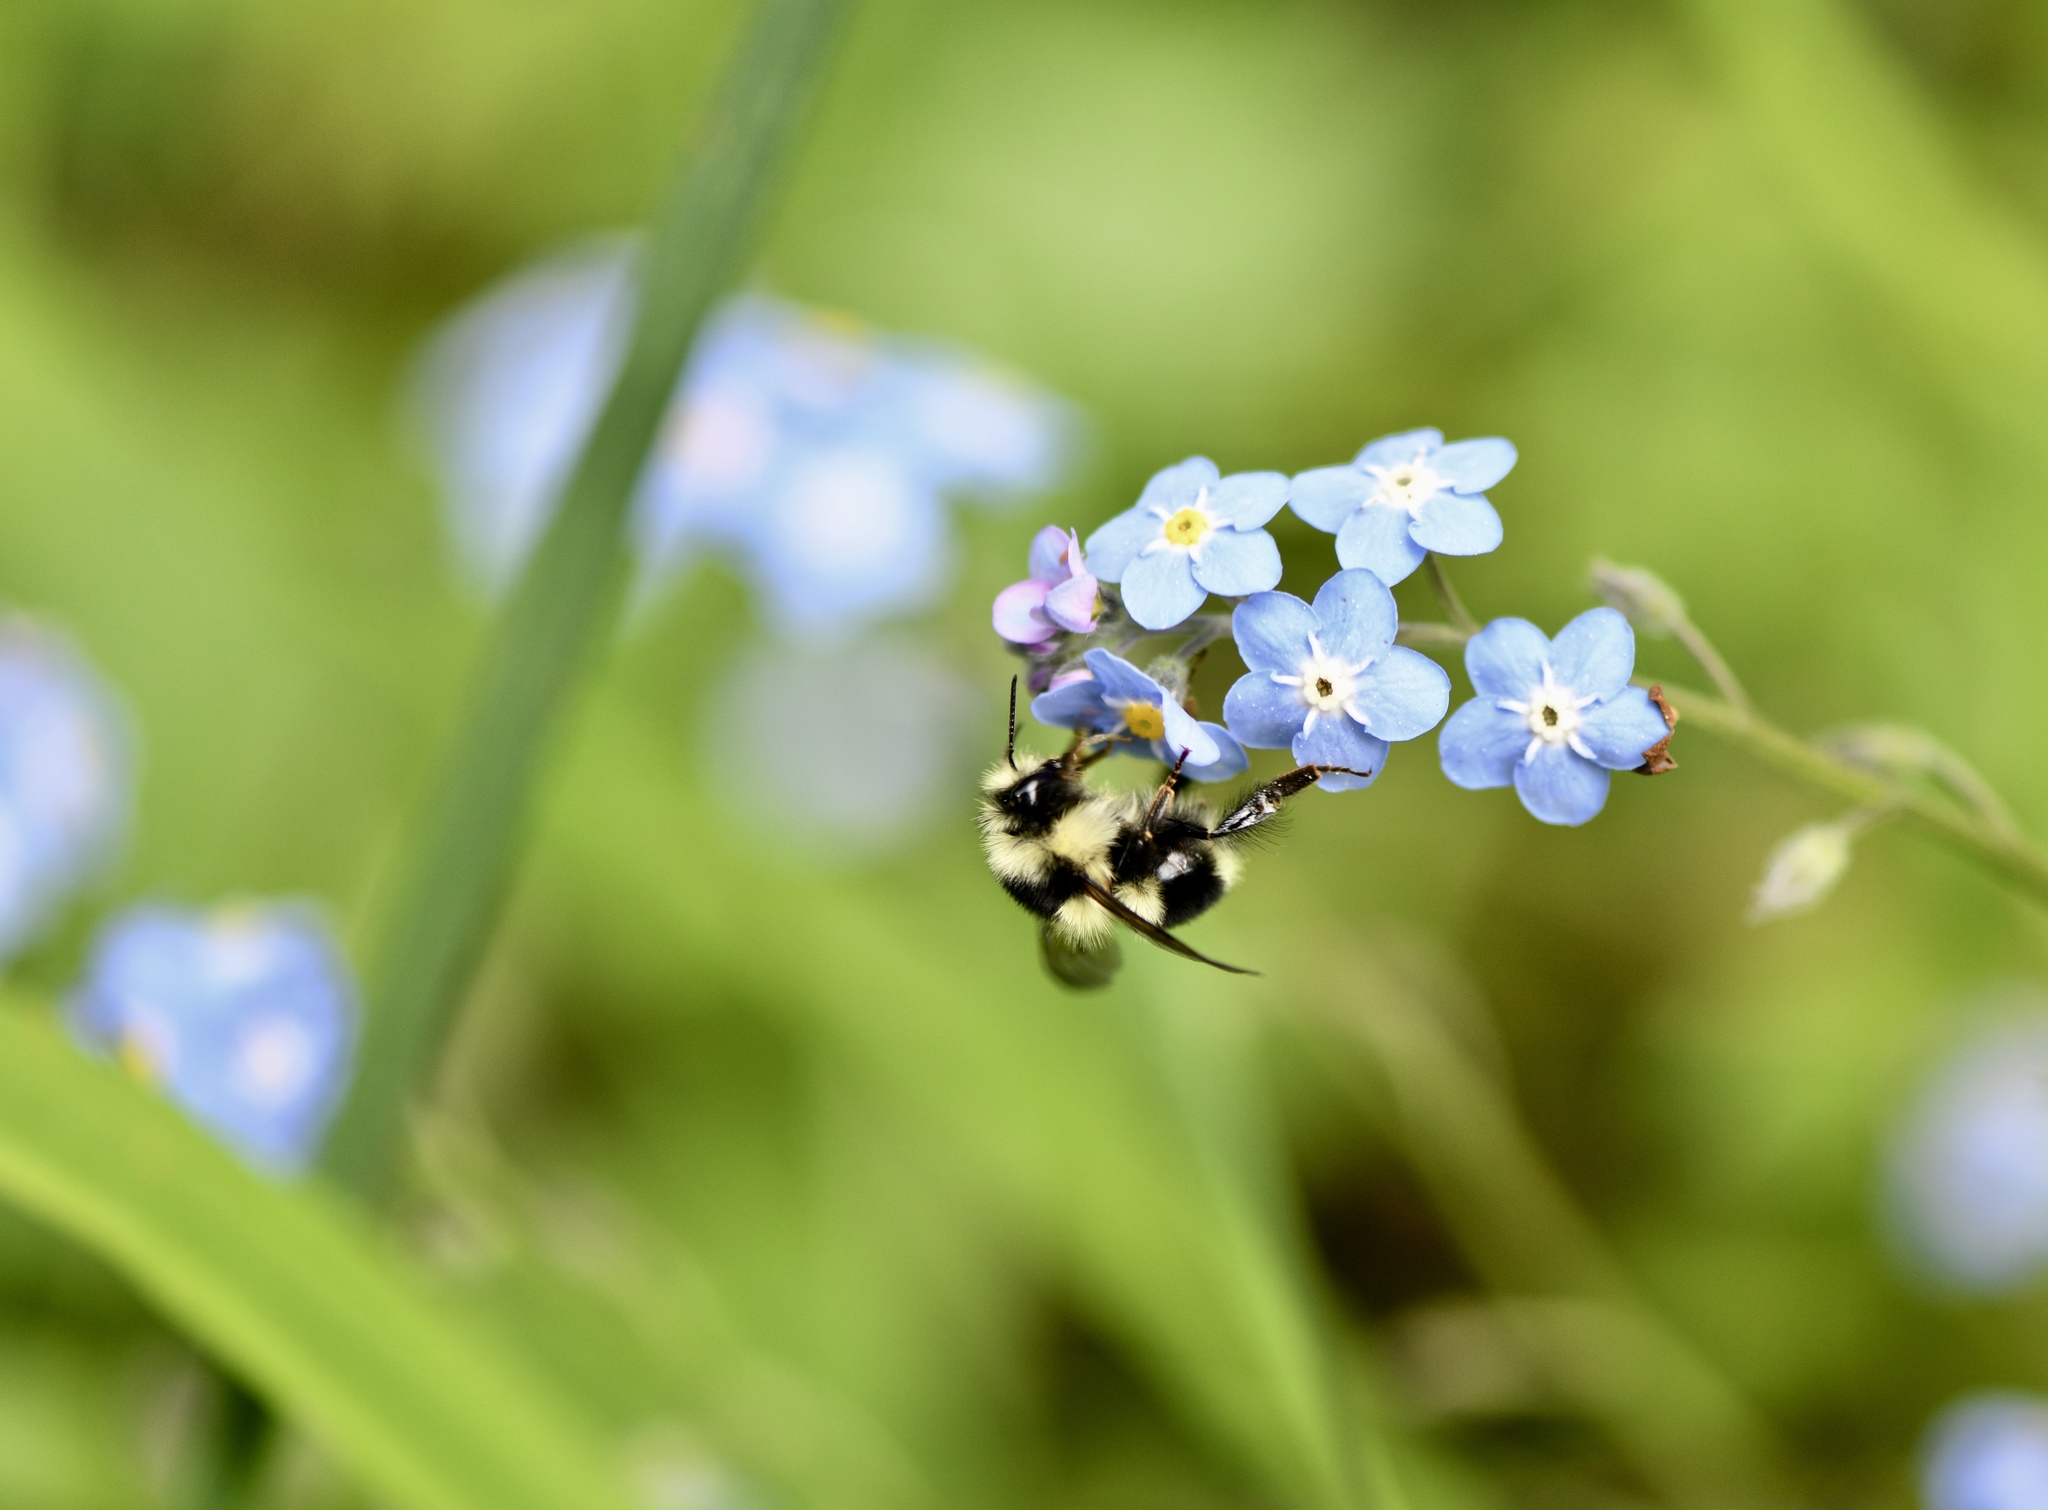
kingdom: Plantae
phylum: Tracheophyta
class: Magnoliopsida
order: Boraginales
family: Boraginaceae
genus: Myosotis
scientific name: Myosotis latifolia
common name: Broadleaf forget-me-not
